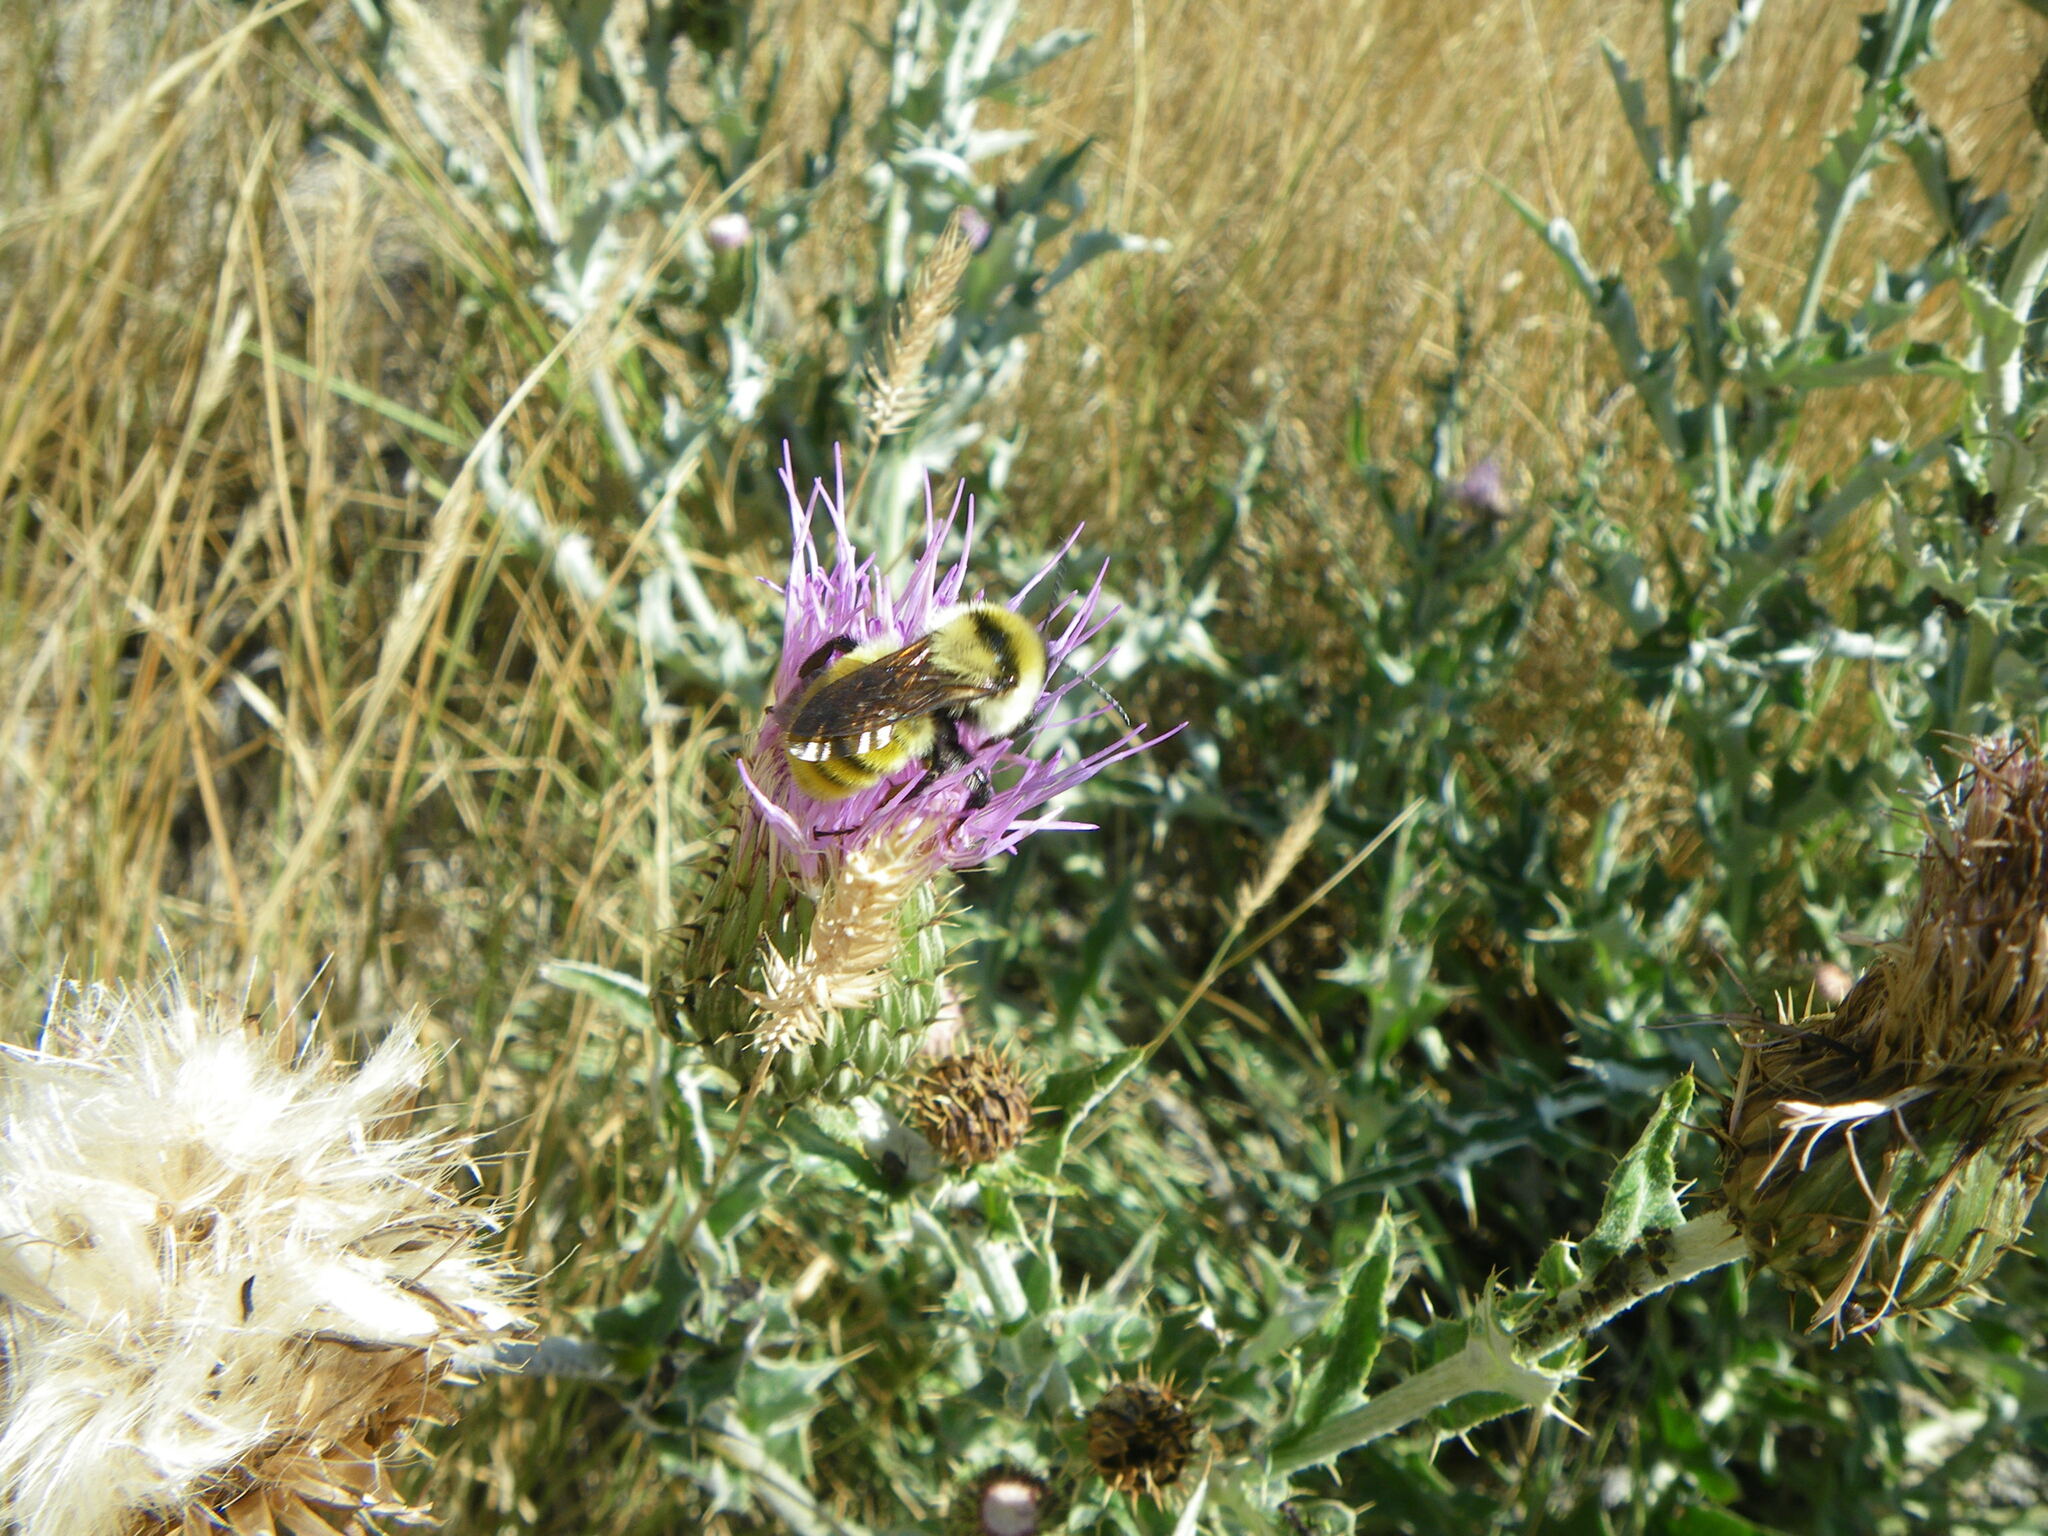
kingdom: Animalia
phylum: Arthropoda
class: Insecta
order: Hymenoptera
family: Apidae
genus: Bombus
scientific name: Bombus fervidus
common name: Yellow bumble bee
